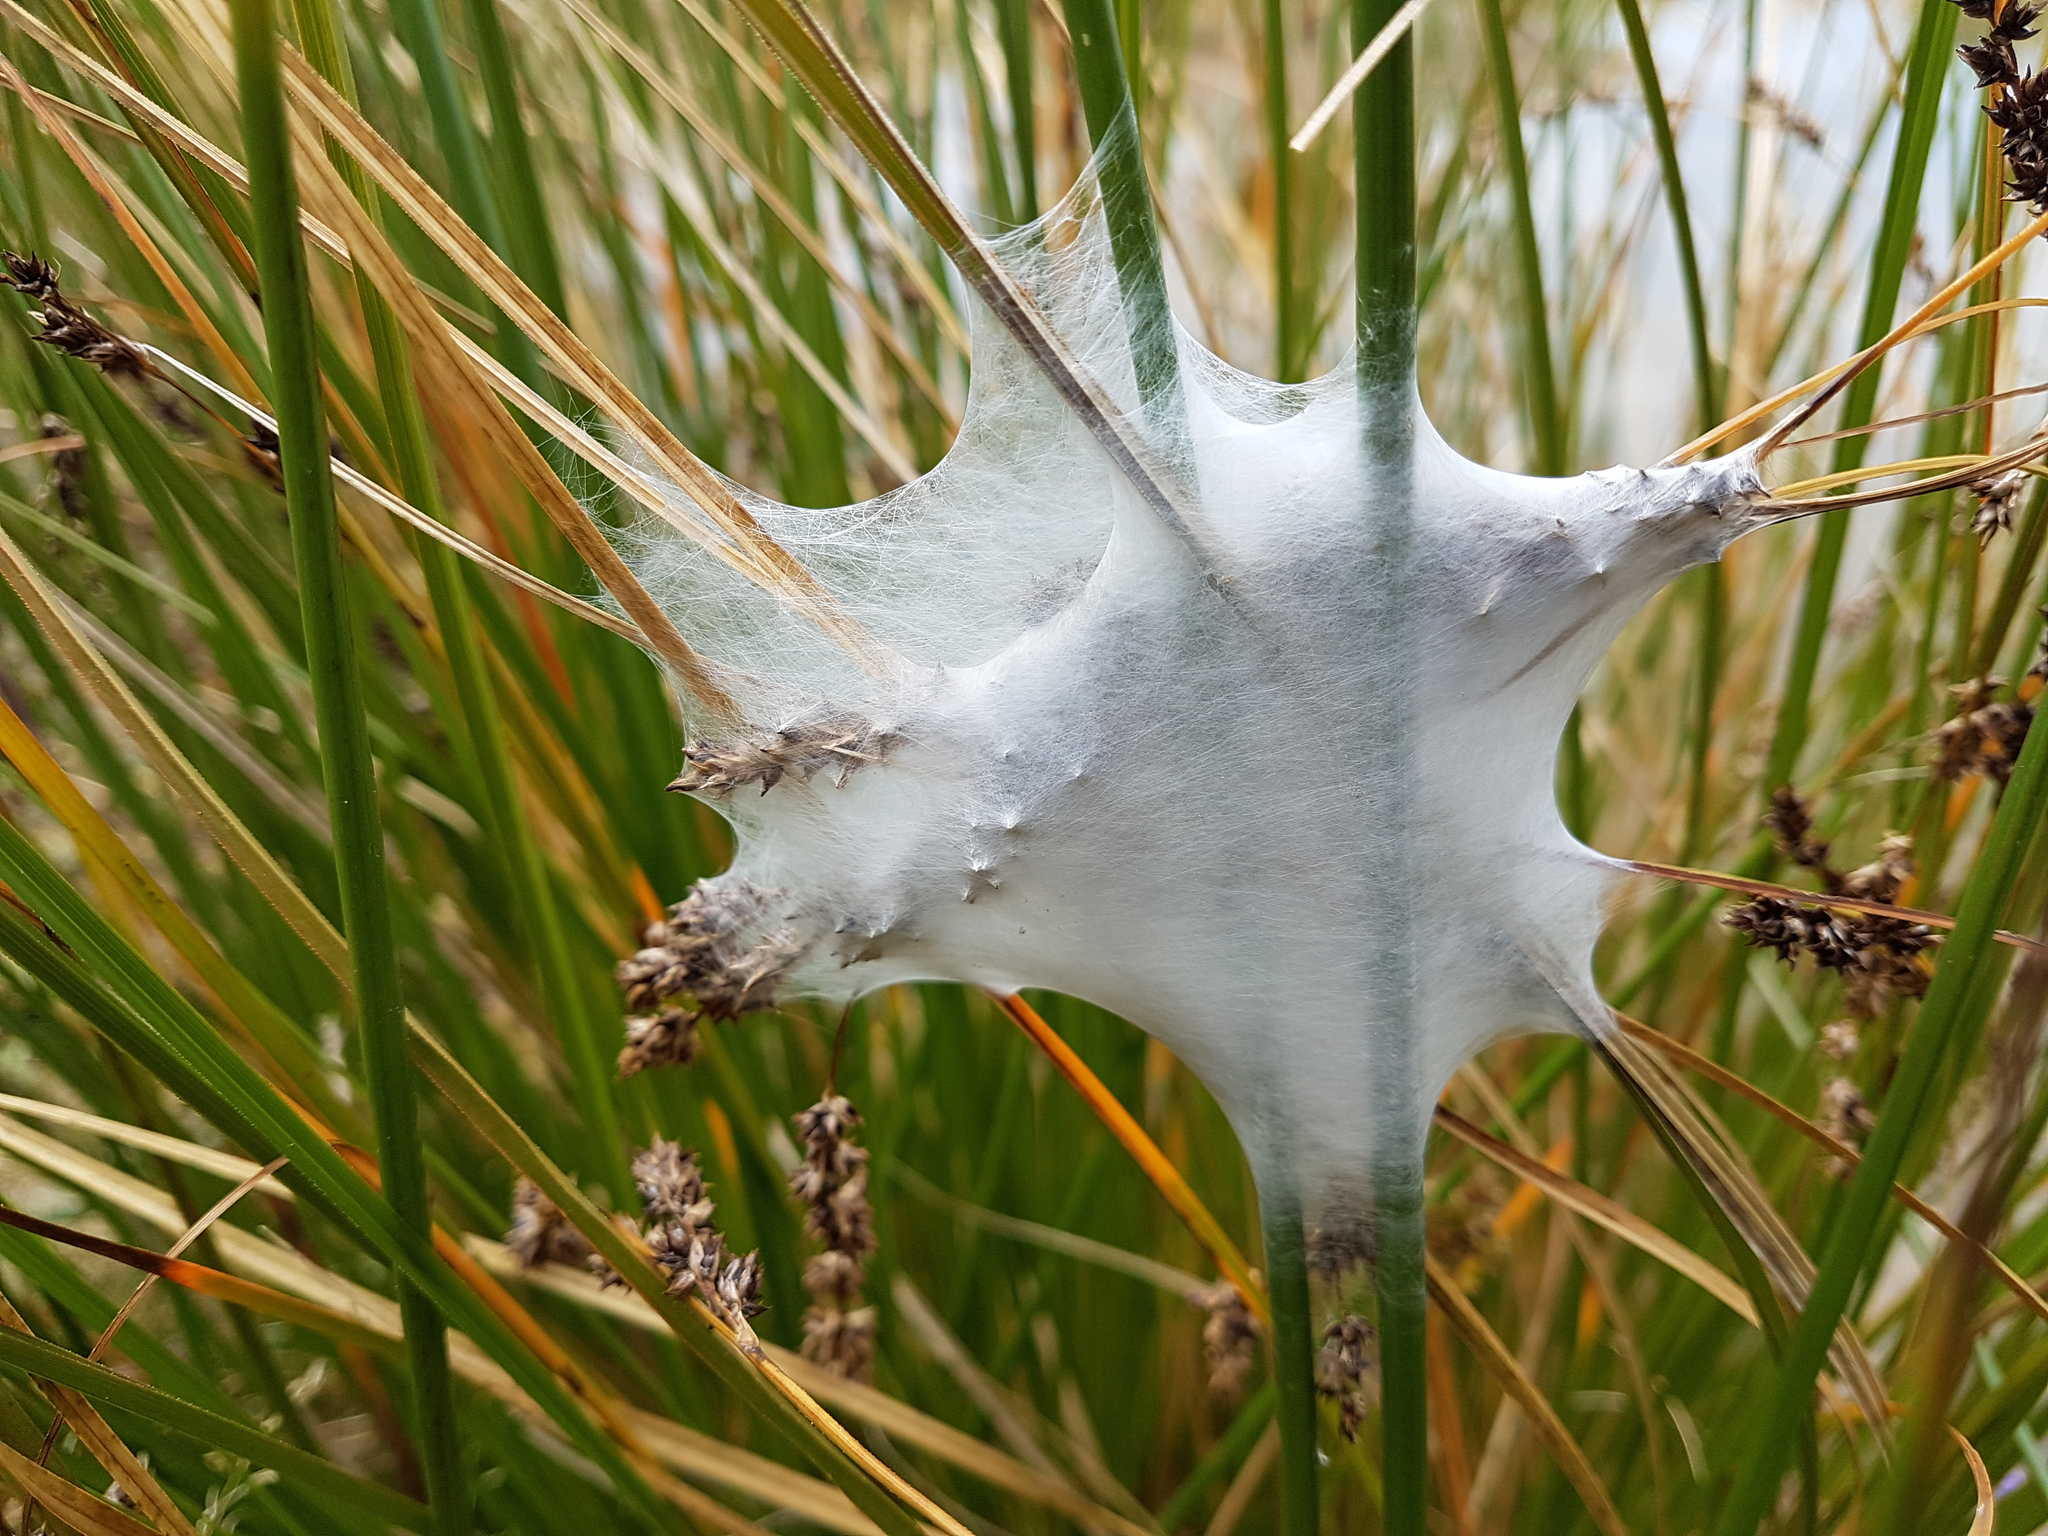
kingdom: Animalia
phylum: Arthropoda
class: Arachnida
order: Araneae
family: Pisauridae
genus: Dolomedes
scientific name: Dolomedes minor
